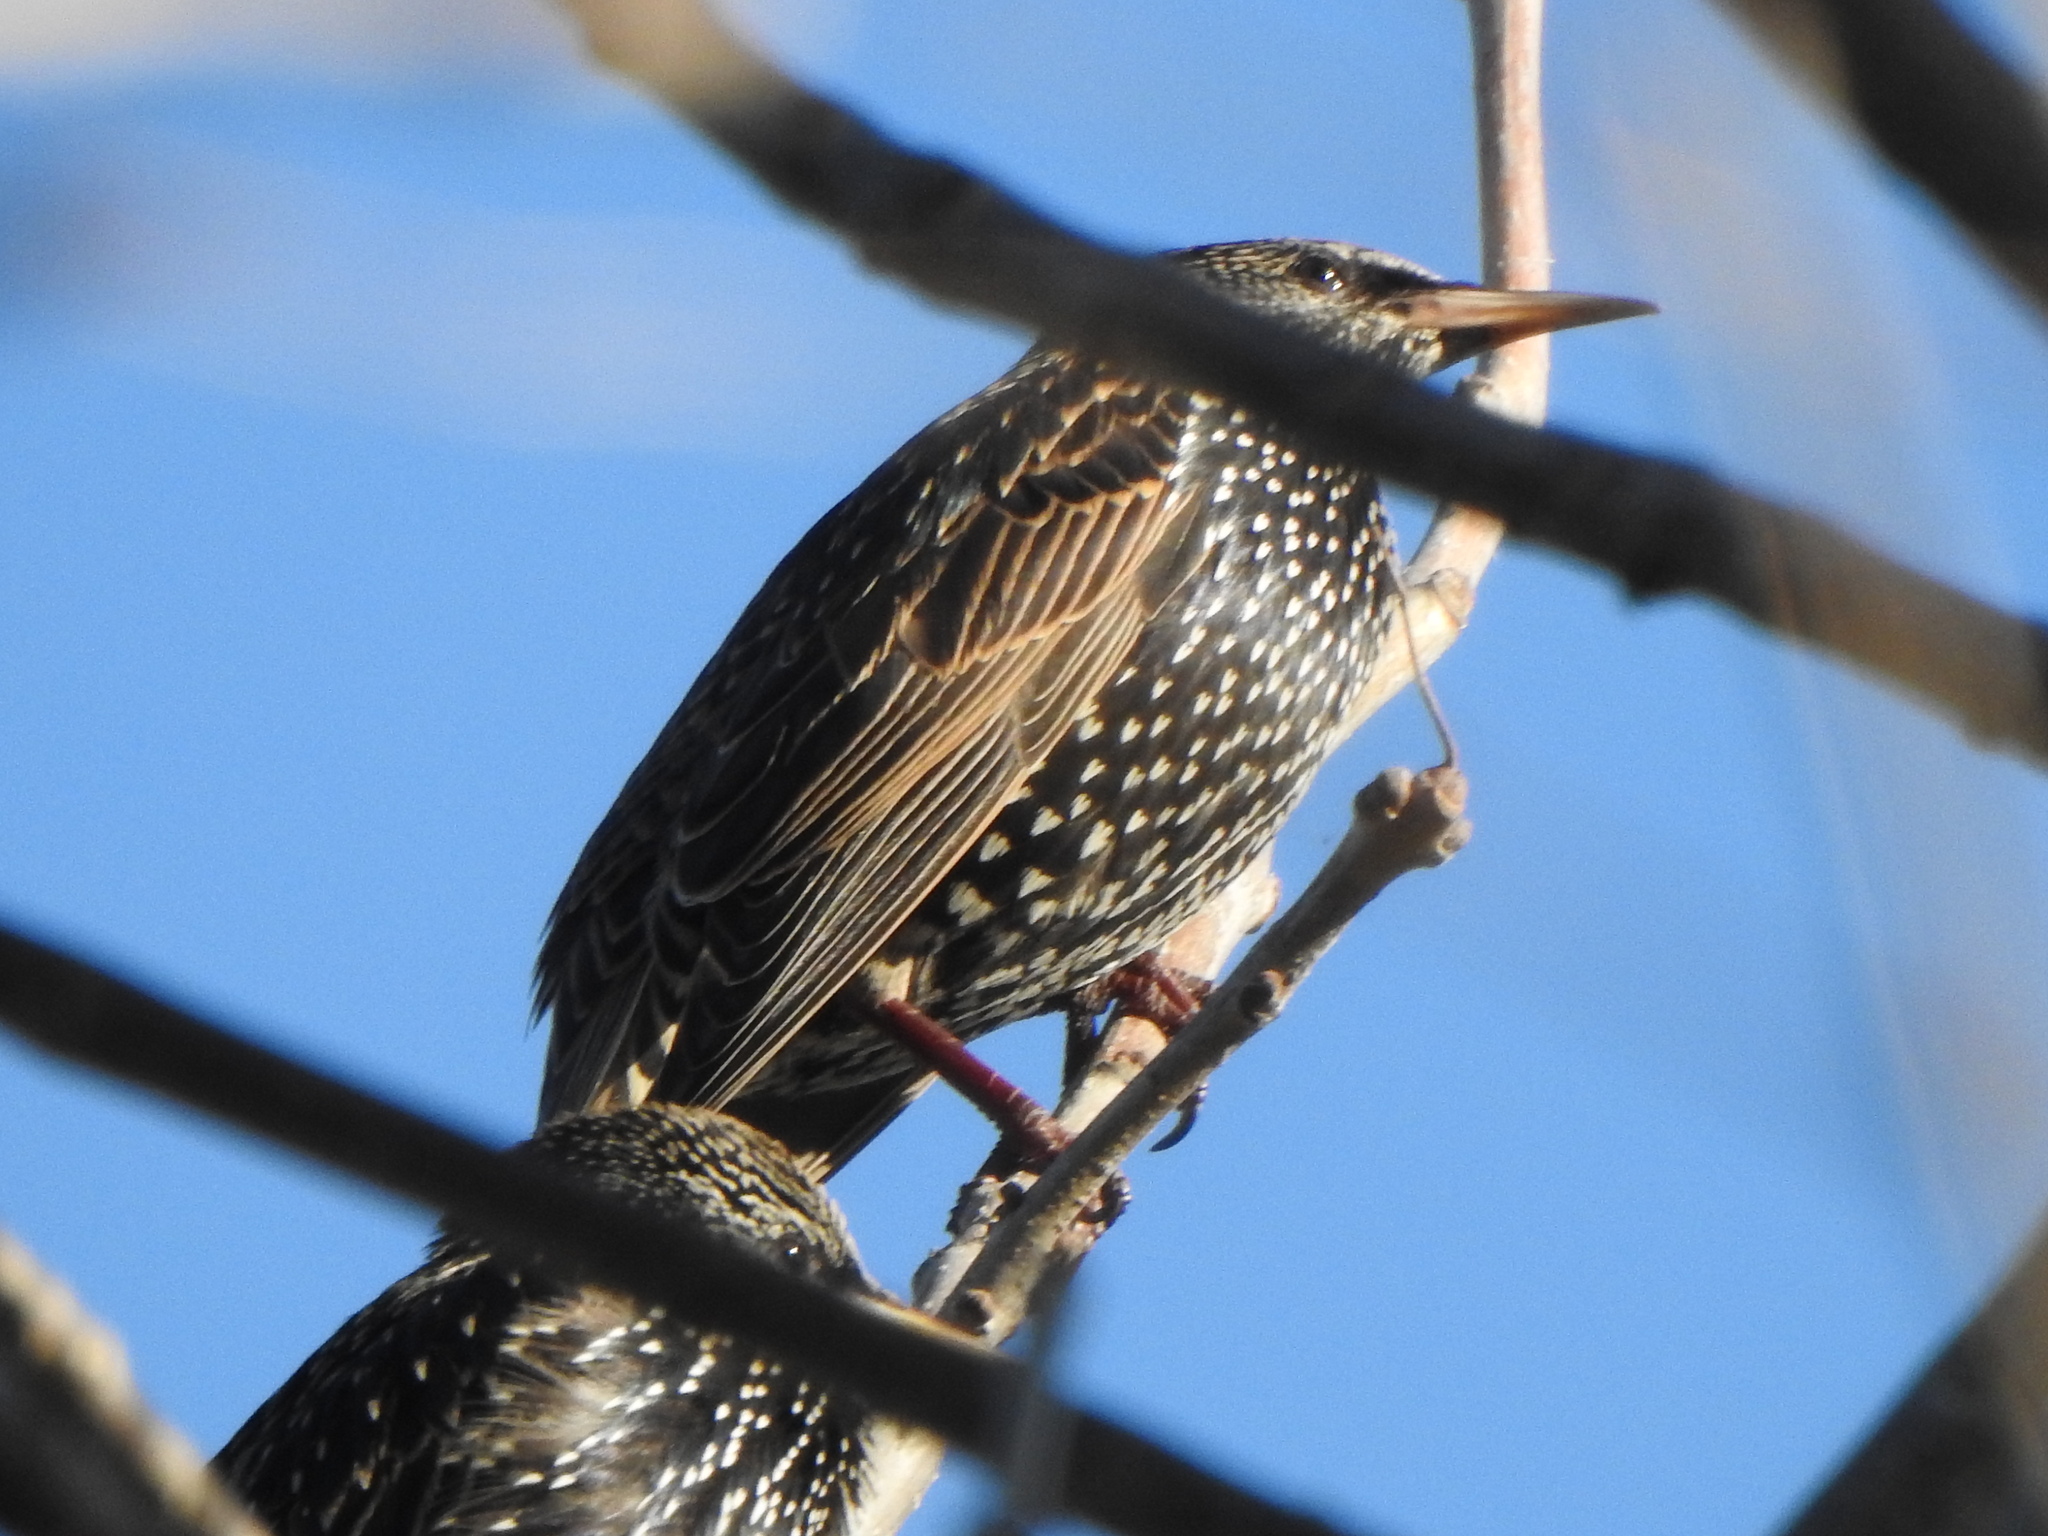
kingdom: Animalia
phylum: Chordata
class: Aves
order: Passeriformes
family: Sturnidae
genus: Sturnus
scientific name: Sturnus vulgaris
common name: Common starling
